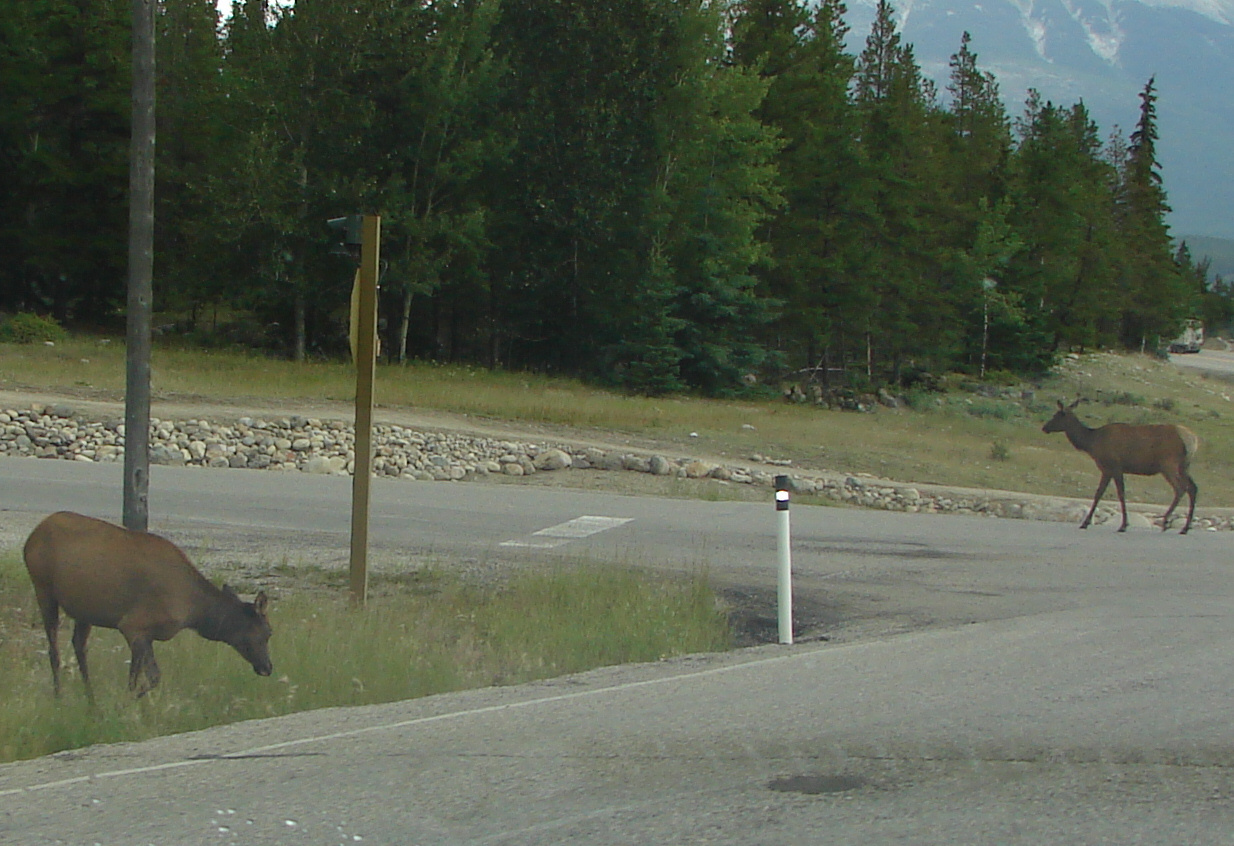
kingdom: Animalia
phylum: Chordata
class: Mammalia
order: Artiodactyla
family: Cervidae
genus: Cervus
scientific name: Cervus elaphus
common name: Red deer
